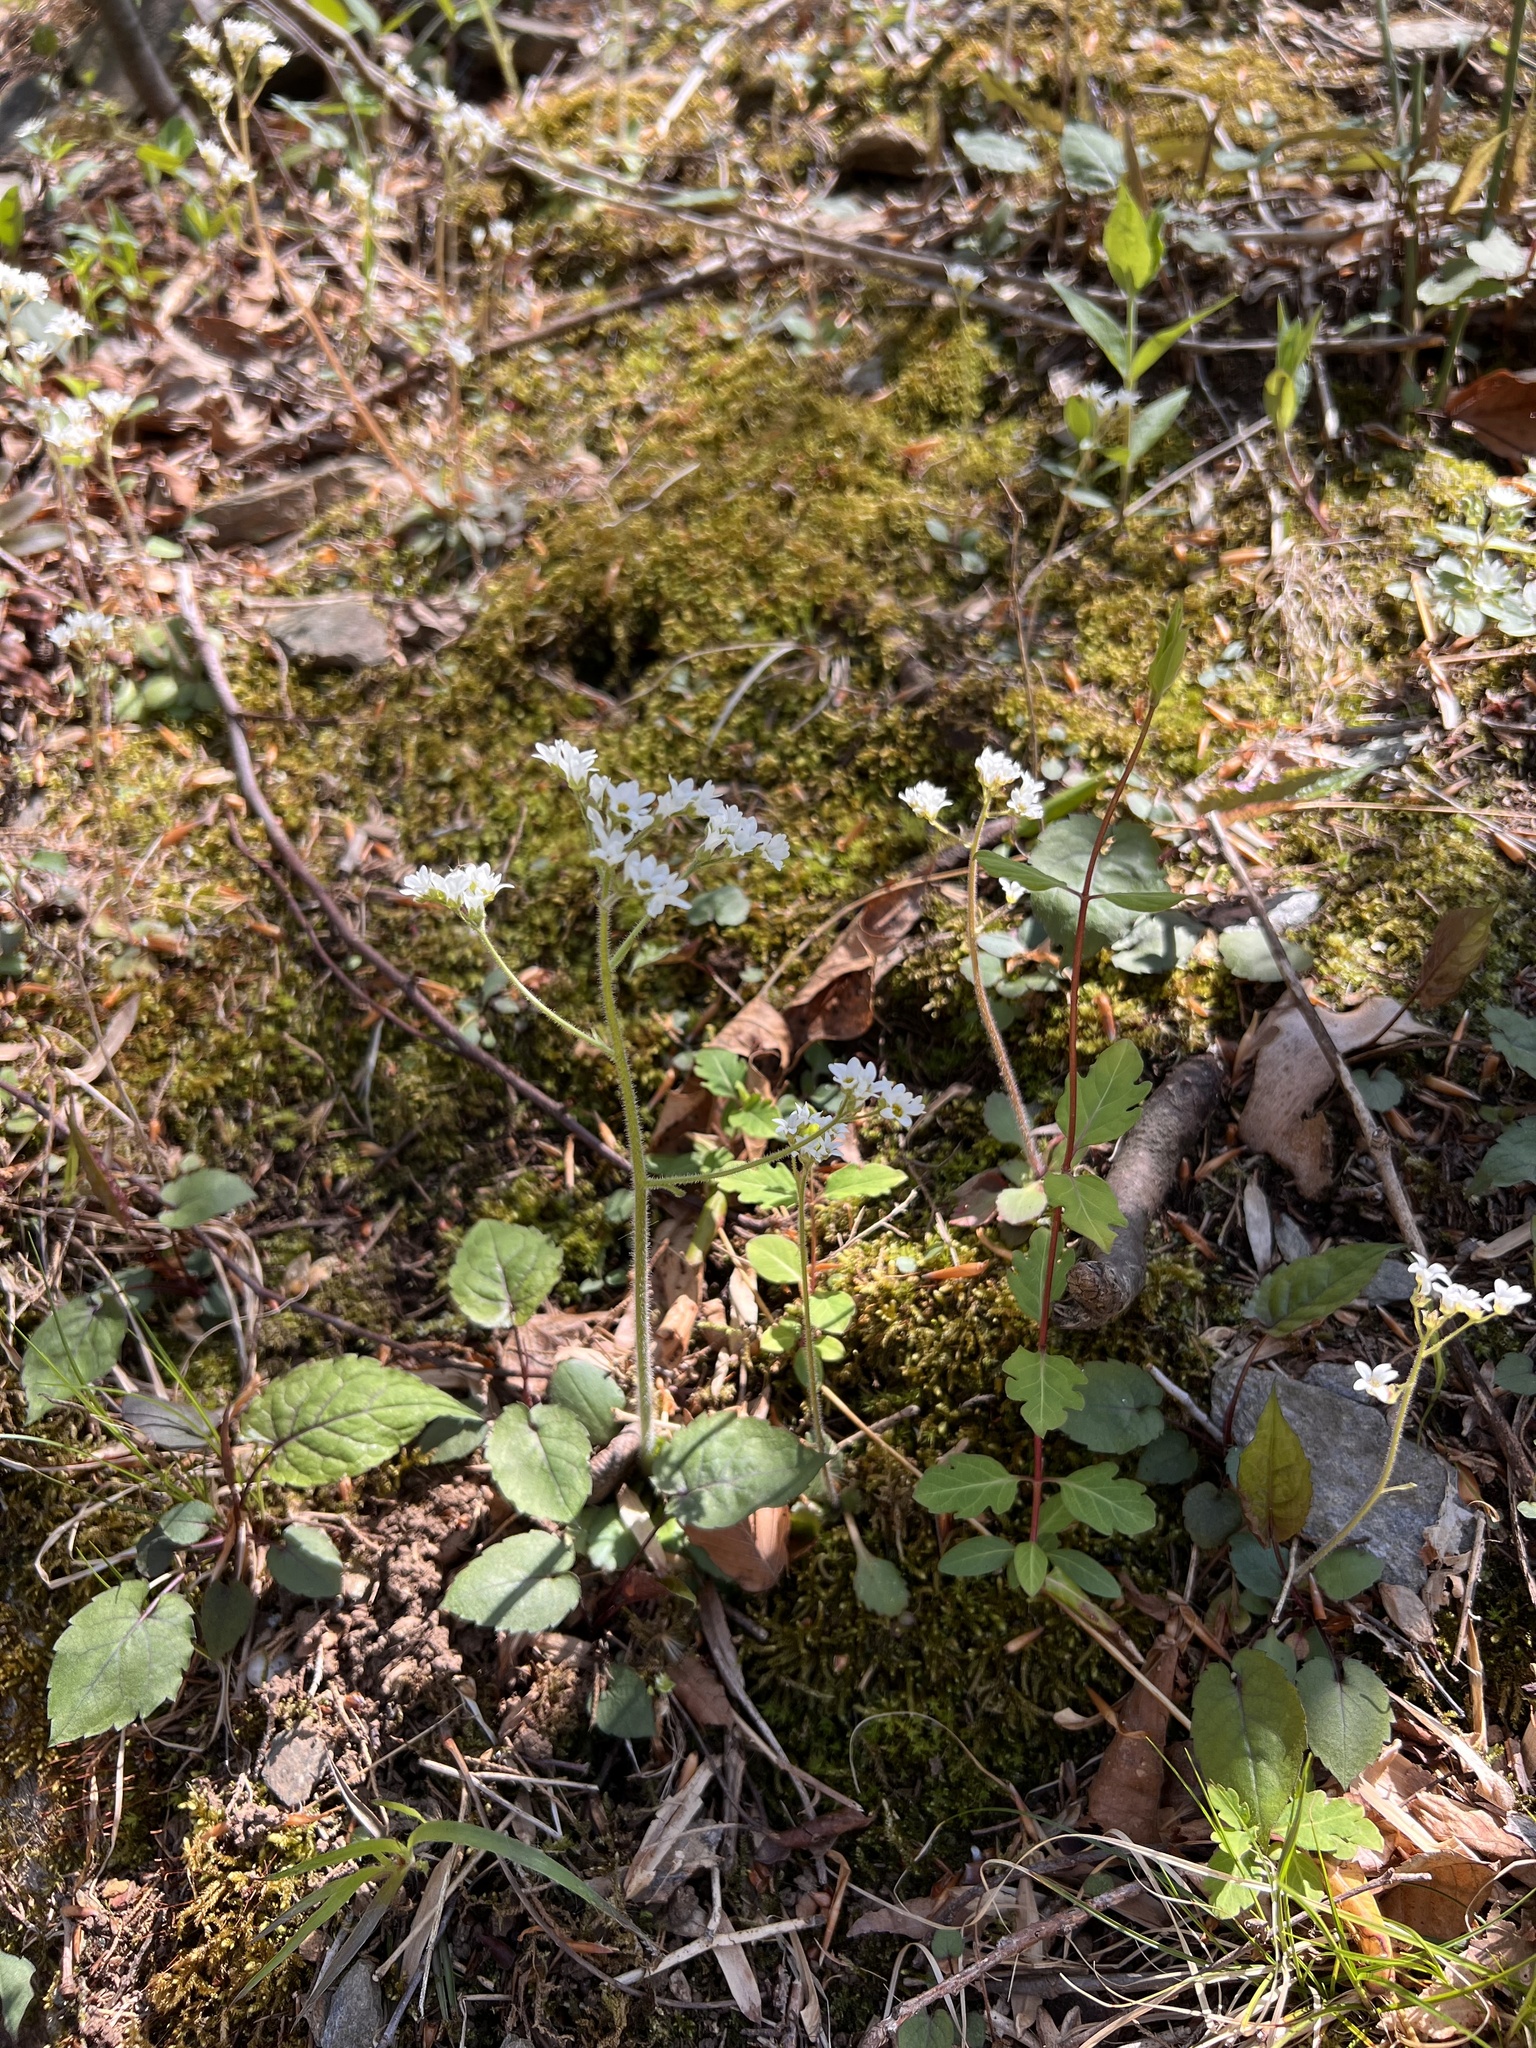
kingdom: Plantae
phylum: Tracheophyta
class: Magnoliopsida
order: Saxifragales
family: Saxifragaceae
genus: Micranthes
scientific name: Micranthes virginiensis
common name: Early saxifrage
